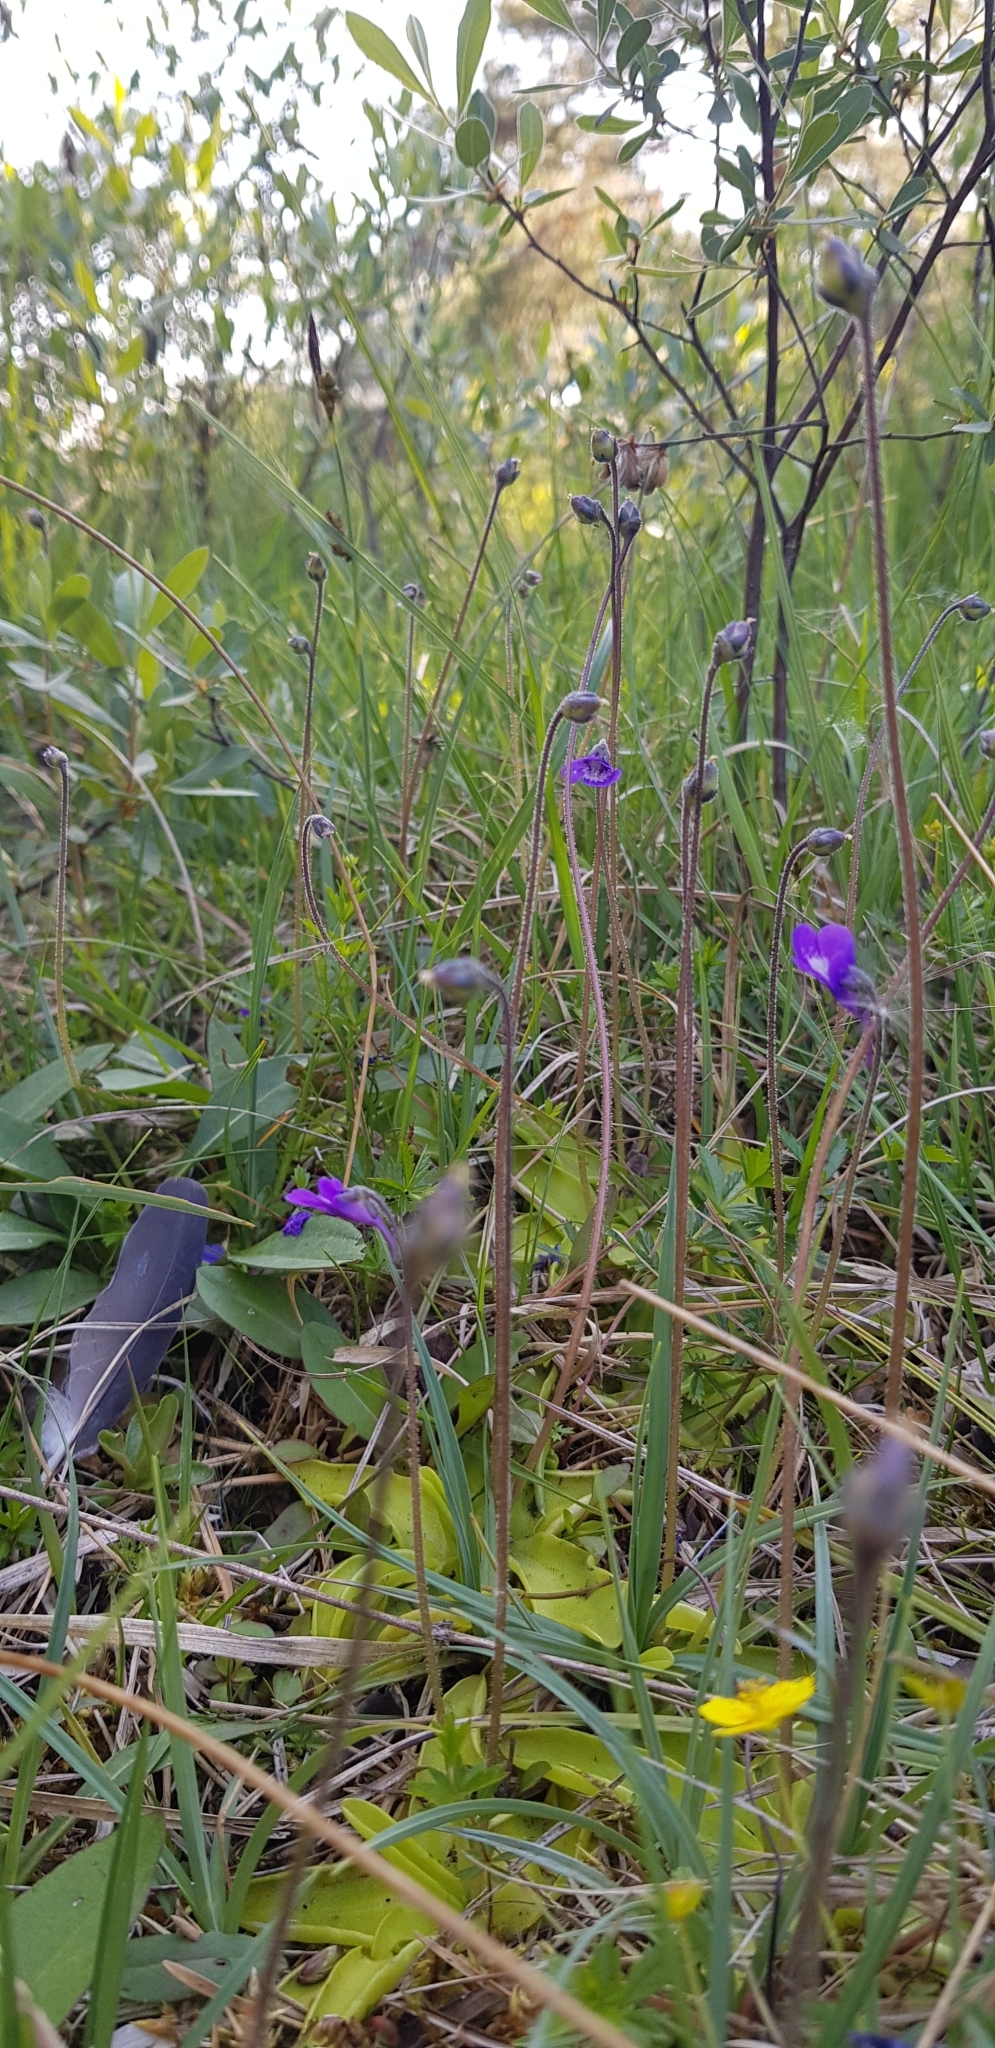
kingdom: Plantae
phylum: Tracheophyta
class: Magnoliopsida
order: Lamiales
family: Lentibulariaceae
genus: Pinguicula
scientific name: Pinguicula vulgaris
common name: Common butterwort
